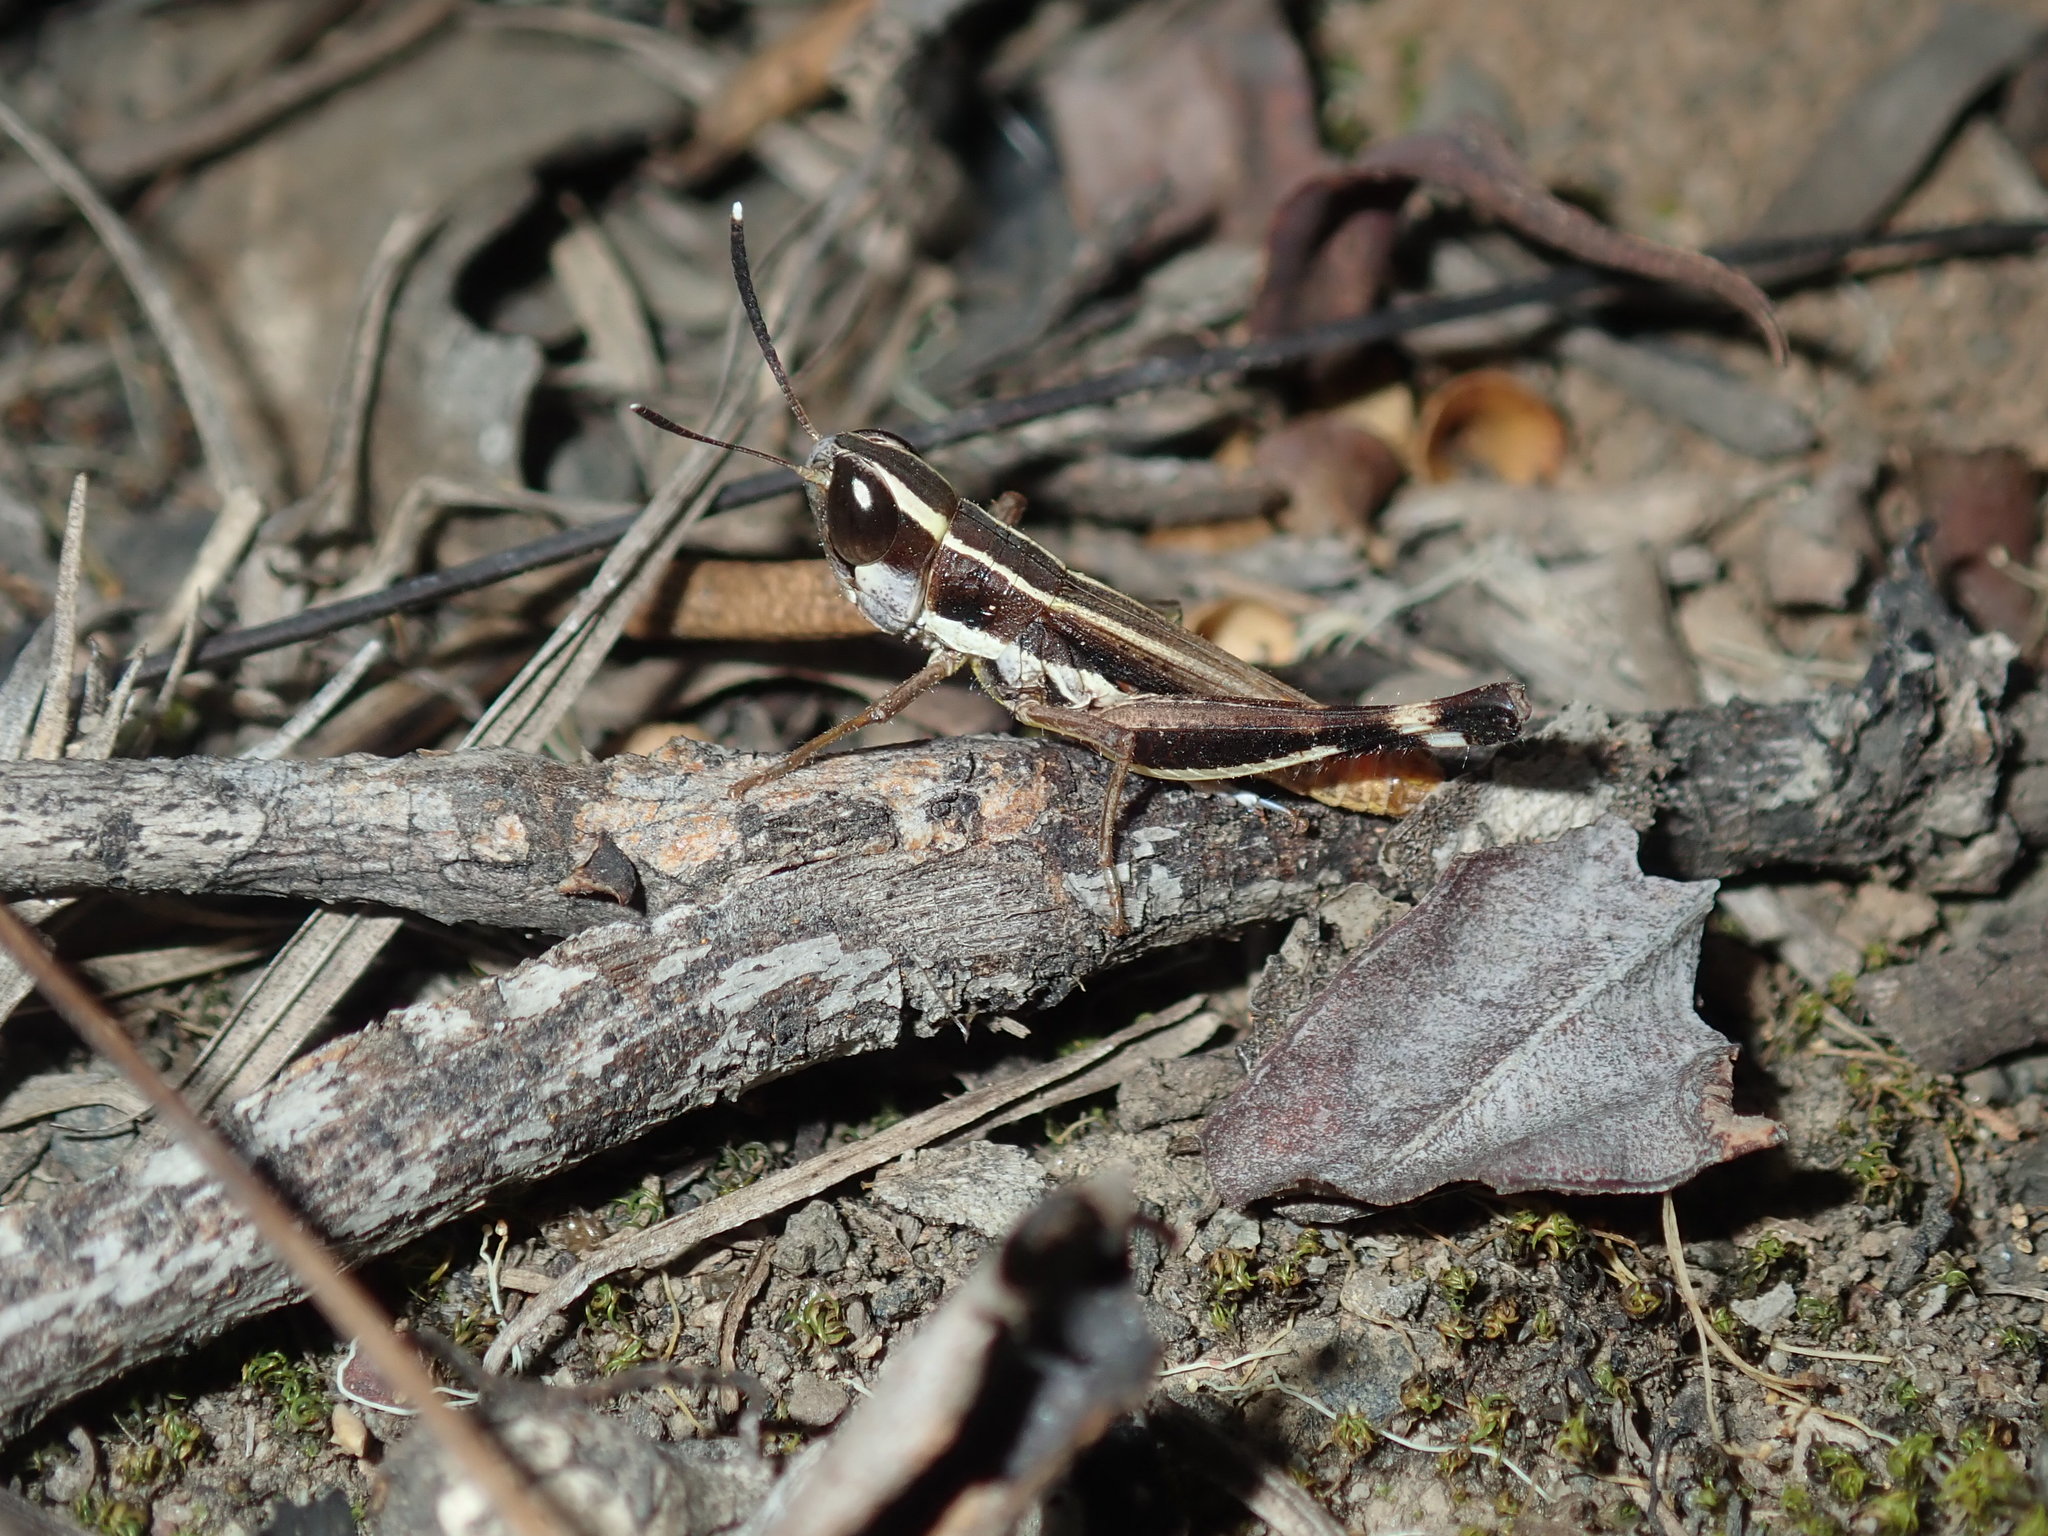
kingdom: Animalia
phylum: Arthropoda
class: Insecta
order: Orthoptera
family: Acrididae
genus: Macrotona
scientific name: Macrotona securiformis
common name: Inland macrotona
